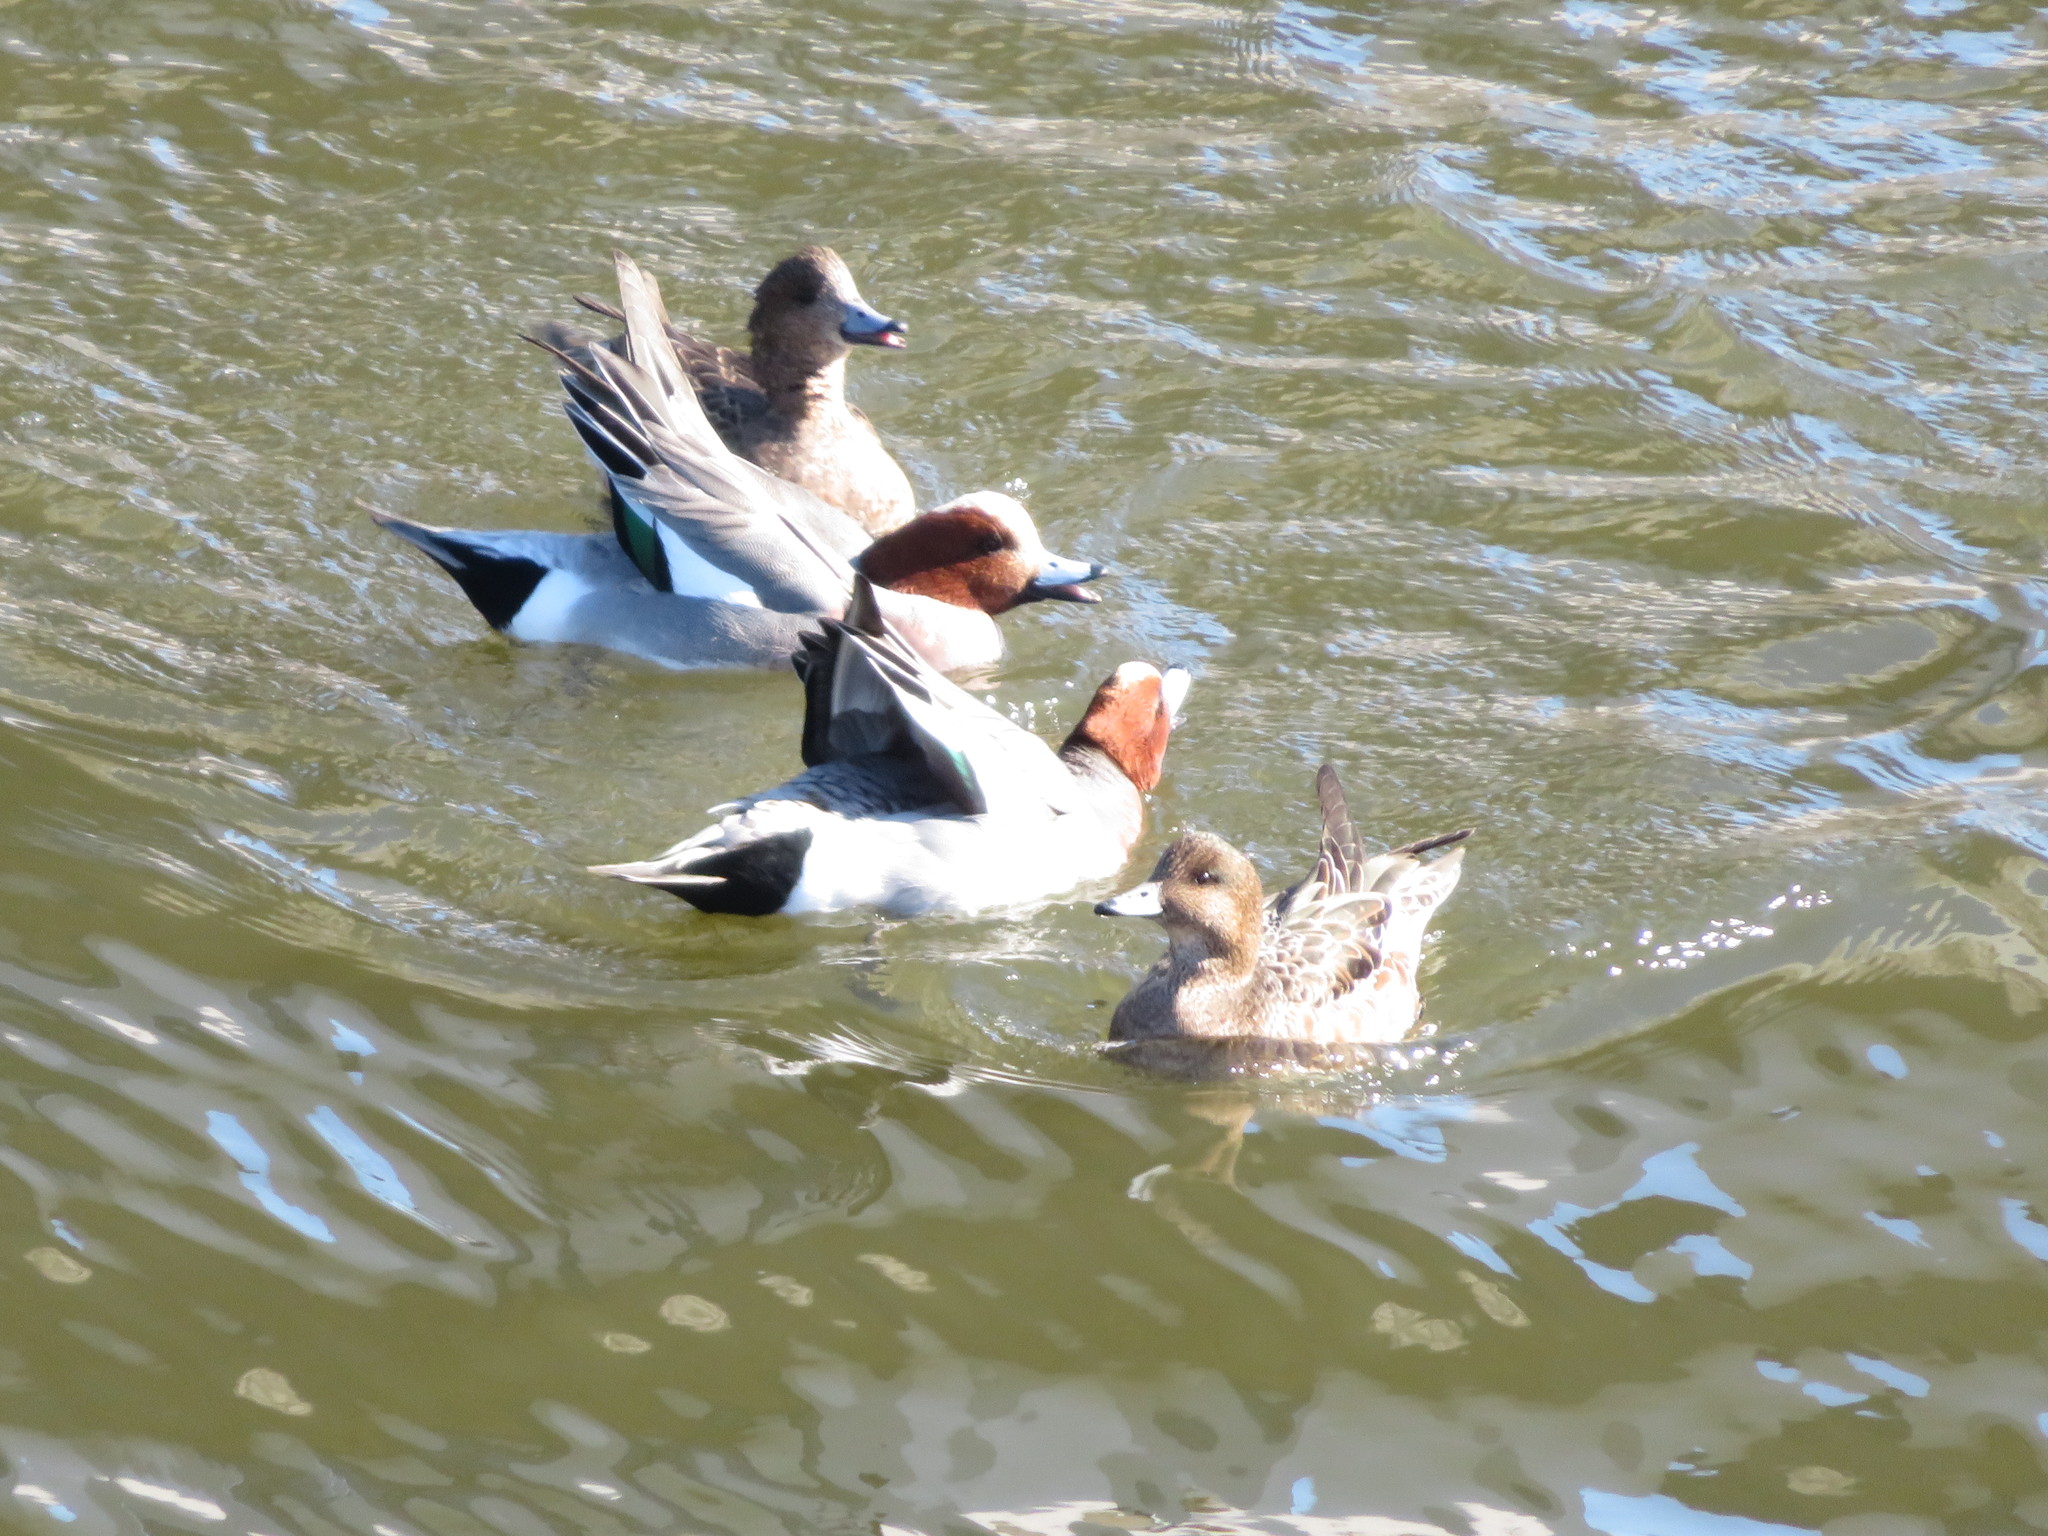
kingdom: Animalia
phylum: Chordata
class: Aves
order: Anseriformes
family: Anatidae
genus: Mareca
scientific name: Mareca penelope
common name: Eurasian wigeon
